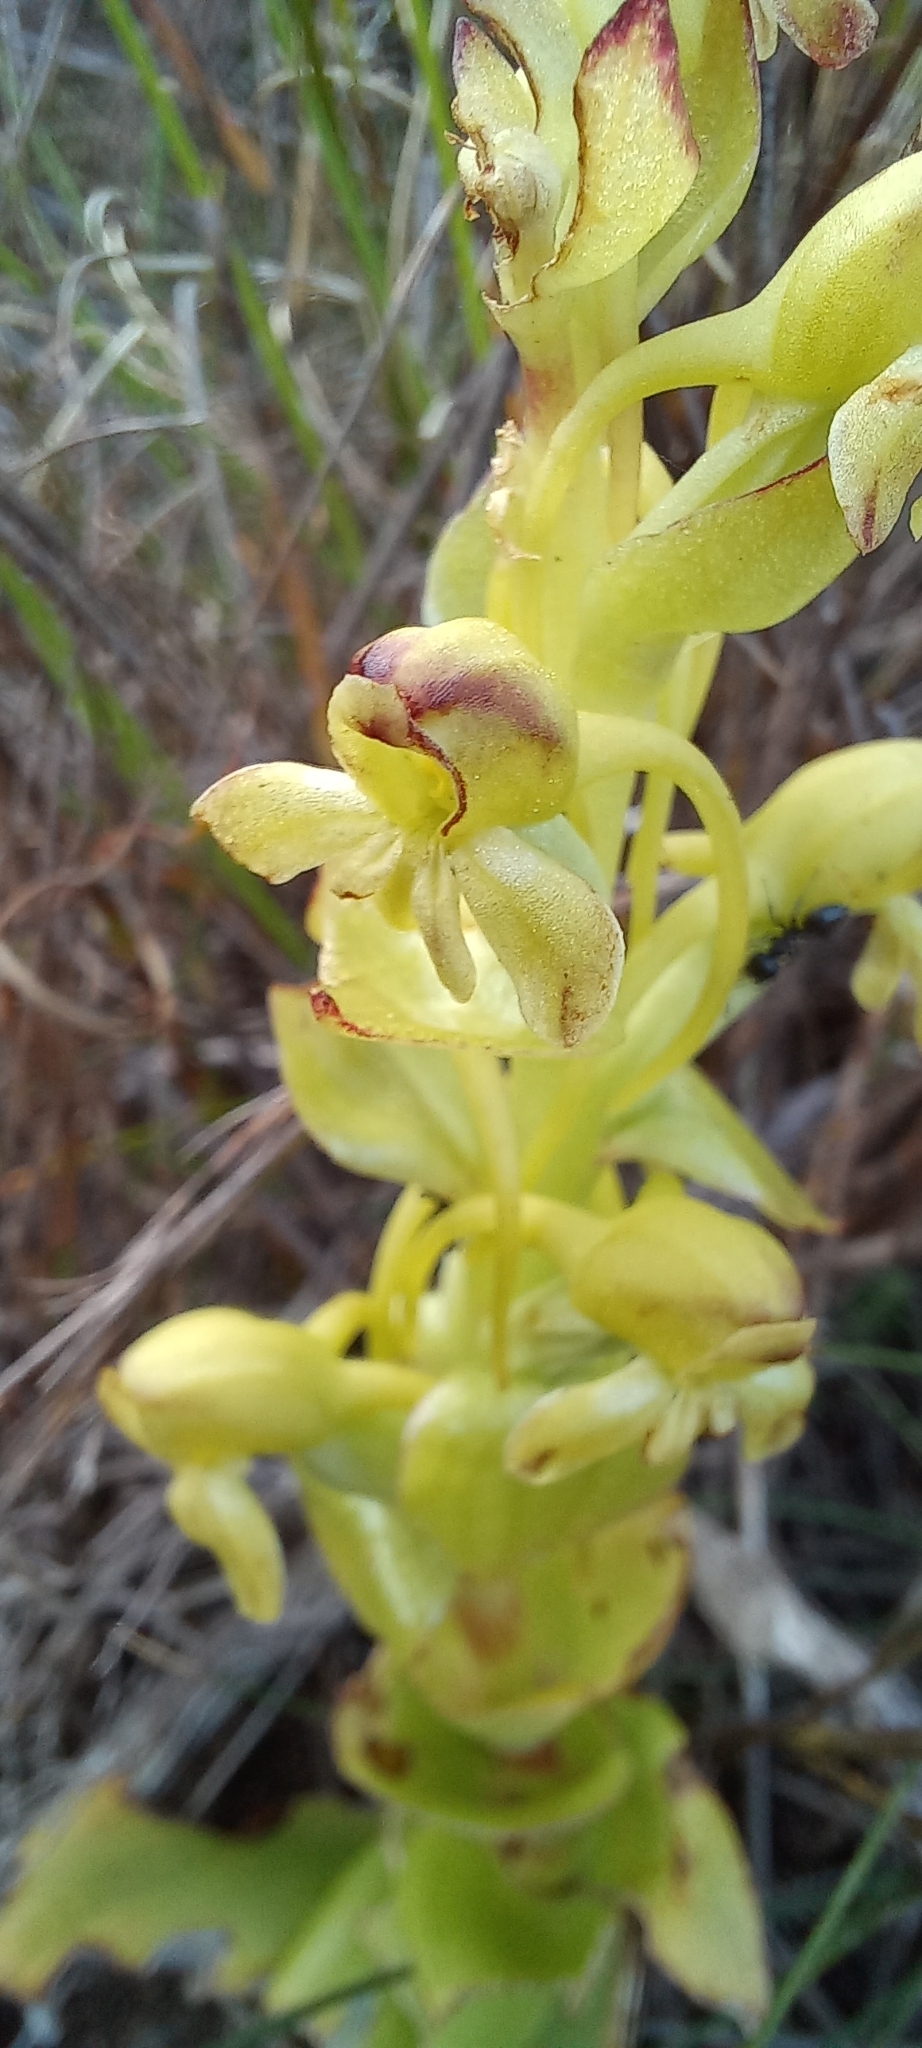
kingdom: Plantae
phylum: Tracheophyta
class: Liliopsida
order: Asparagales
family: Orchidaceae
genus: Satyrium
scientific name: Satyrium odorum
